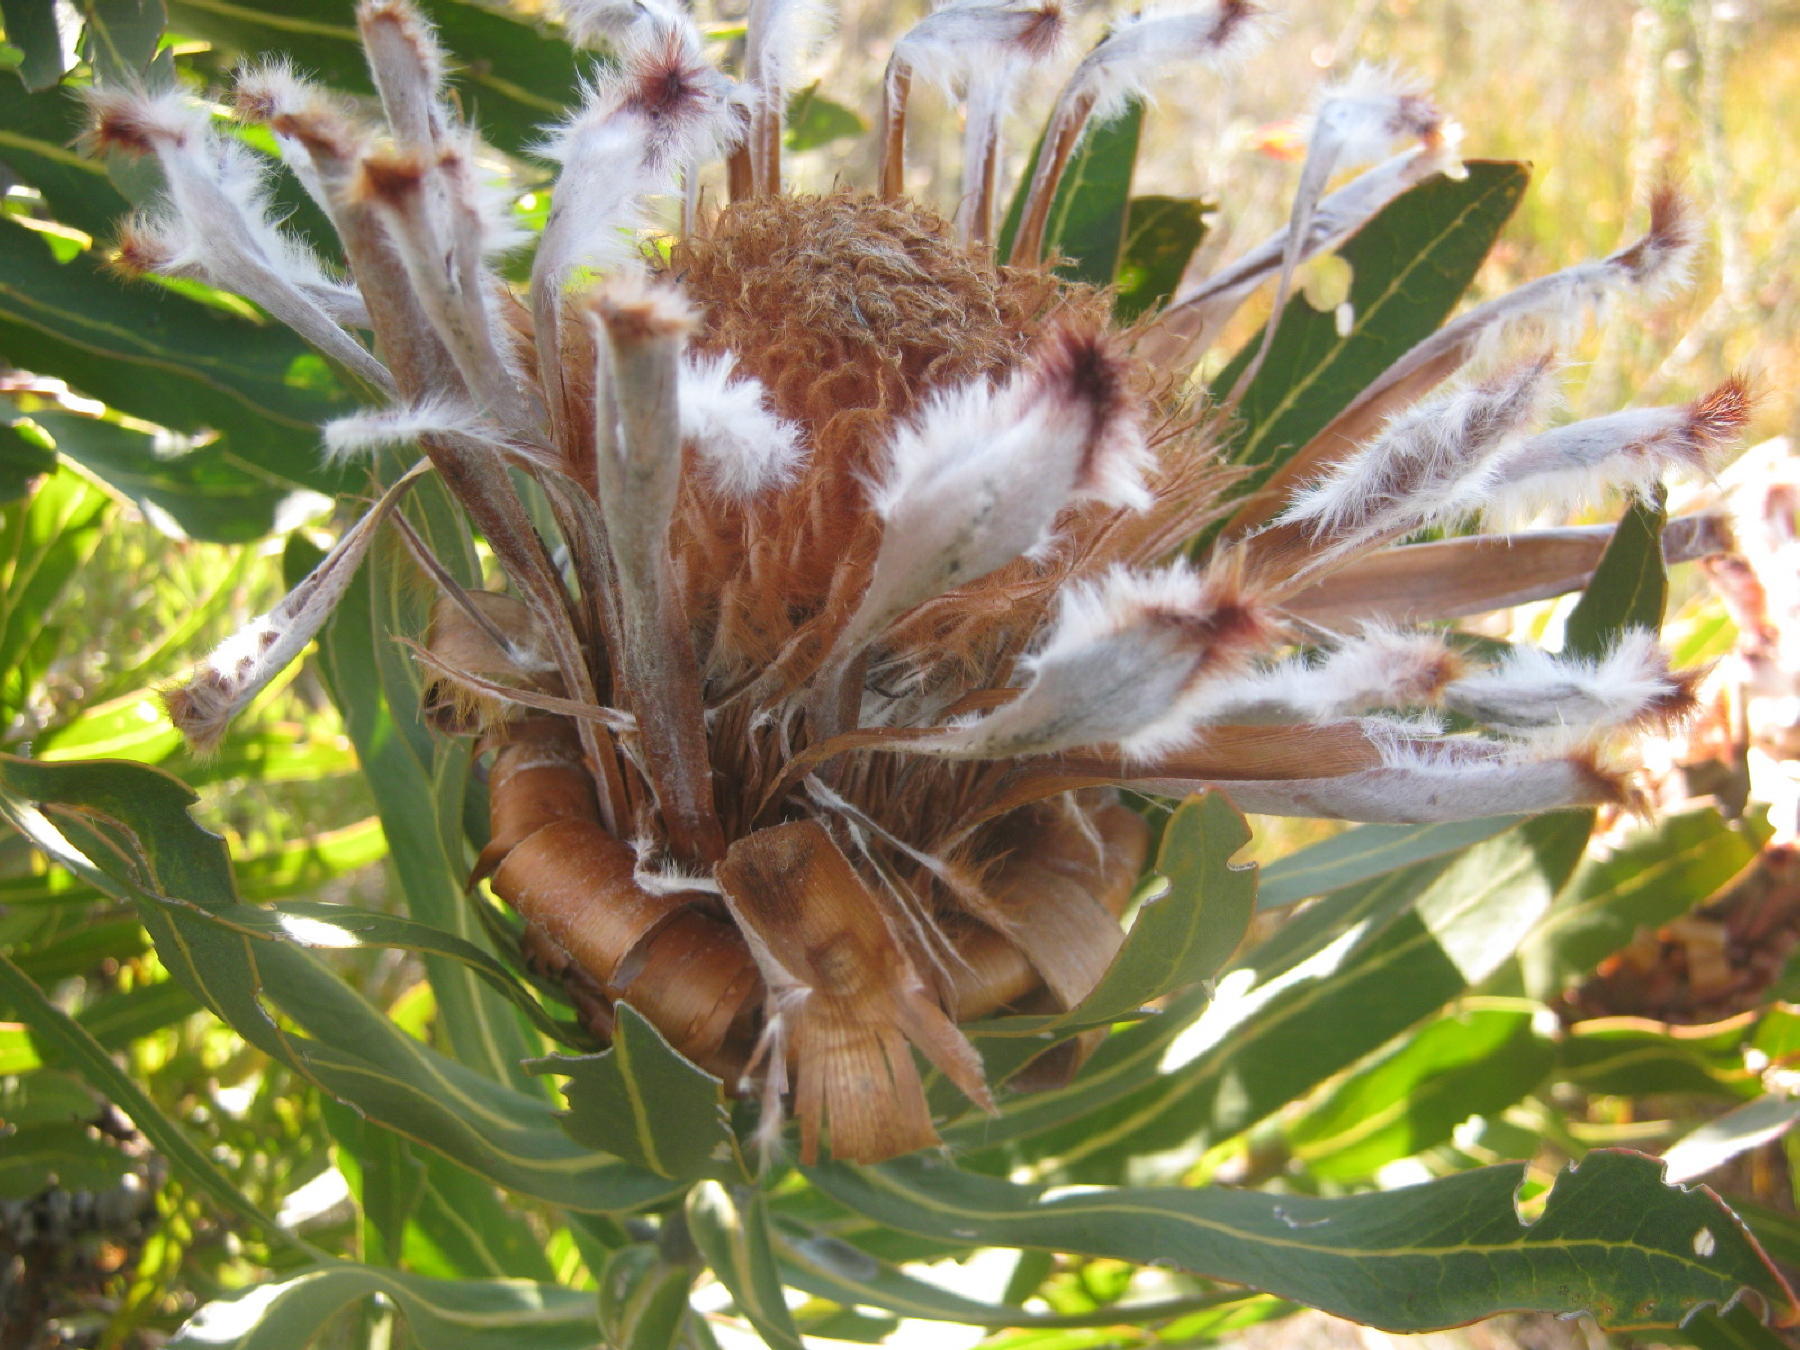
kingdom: Plantae
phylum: Tracheophyta
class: Magnoliopsida
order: Proteales
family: Proteaceae
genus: Protea
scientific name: Protea neriifolia
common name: Blue sugarbush
